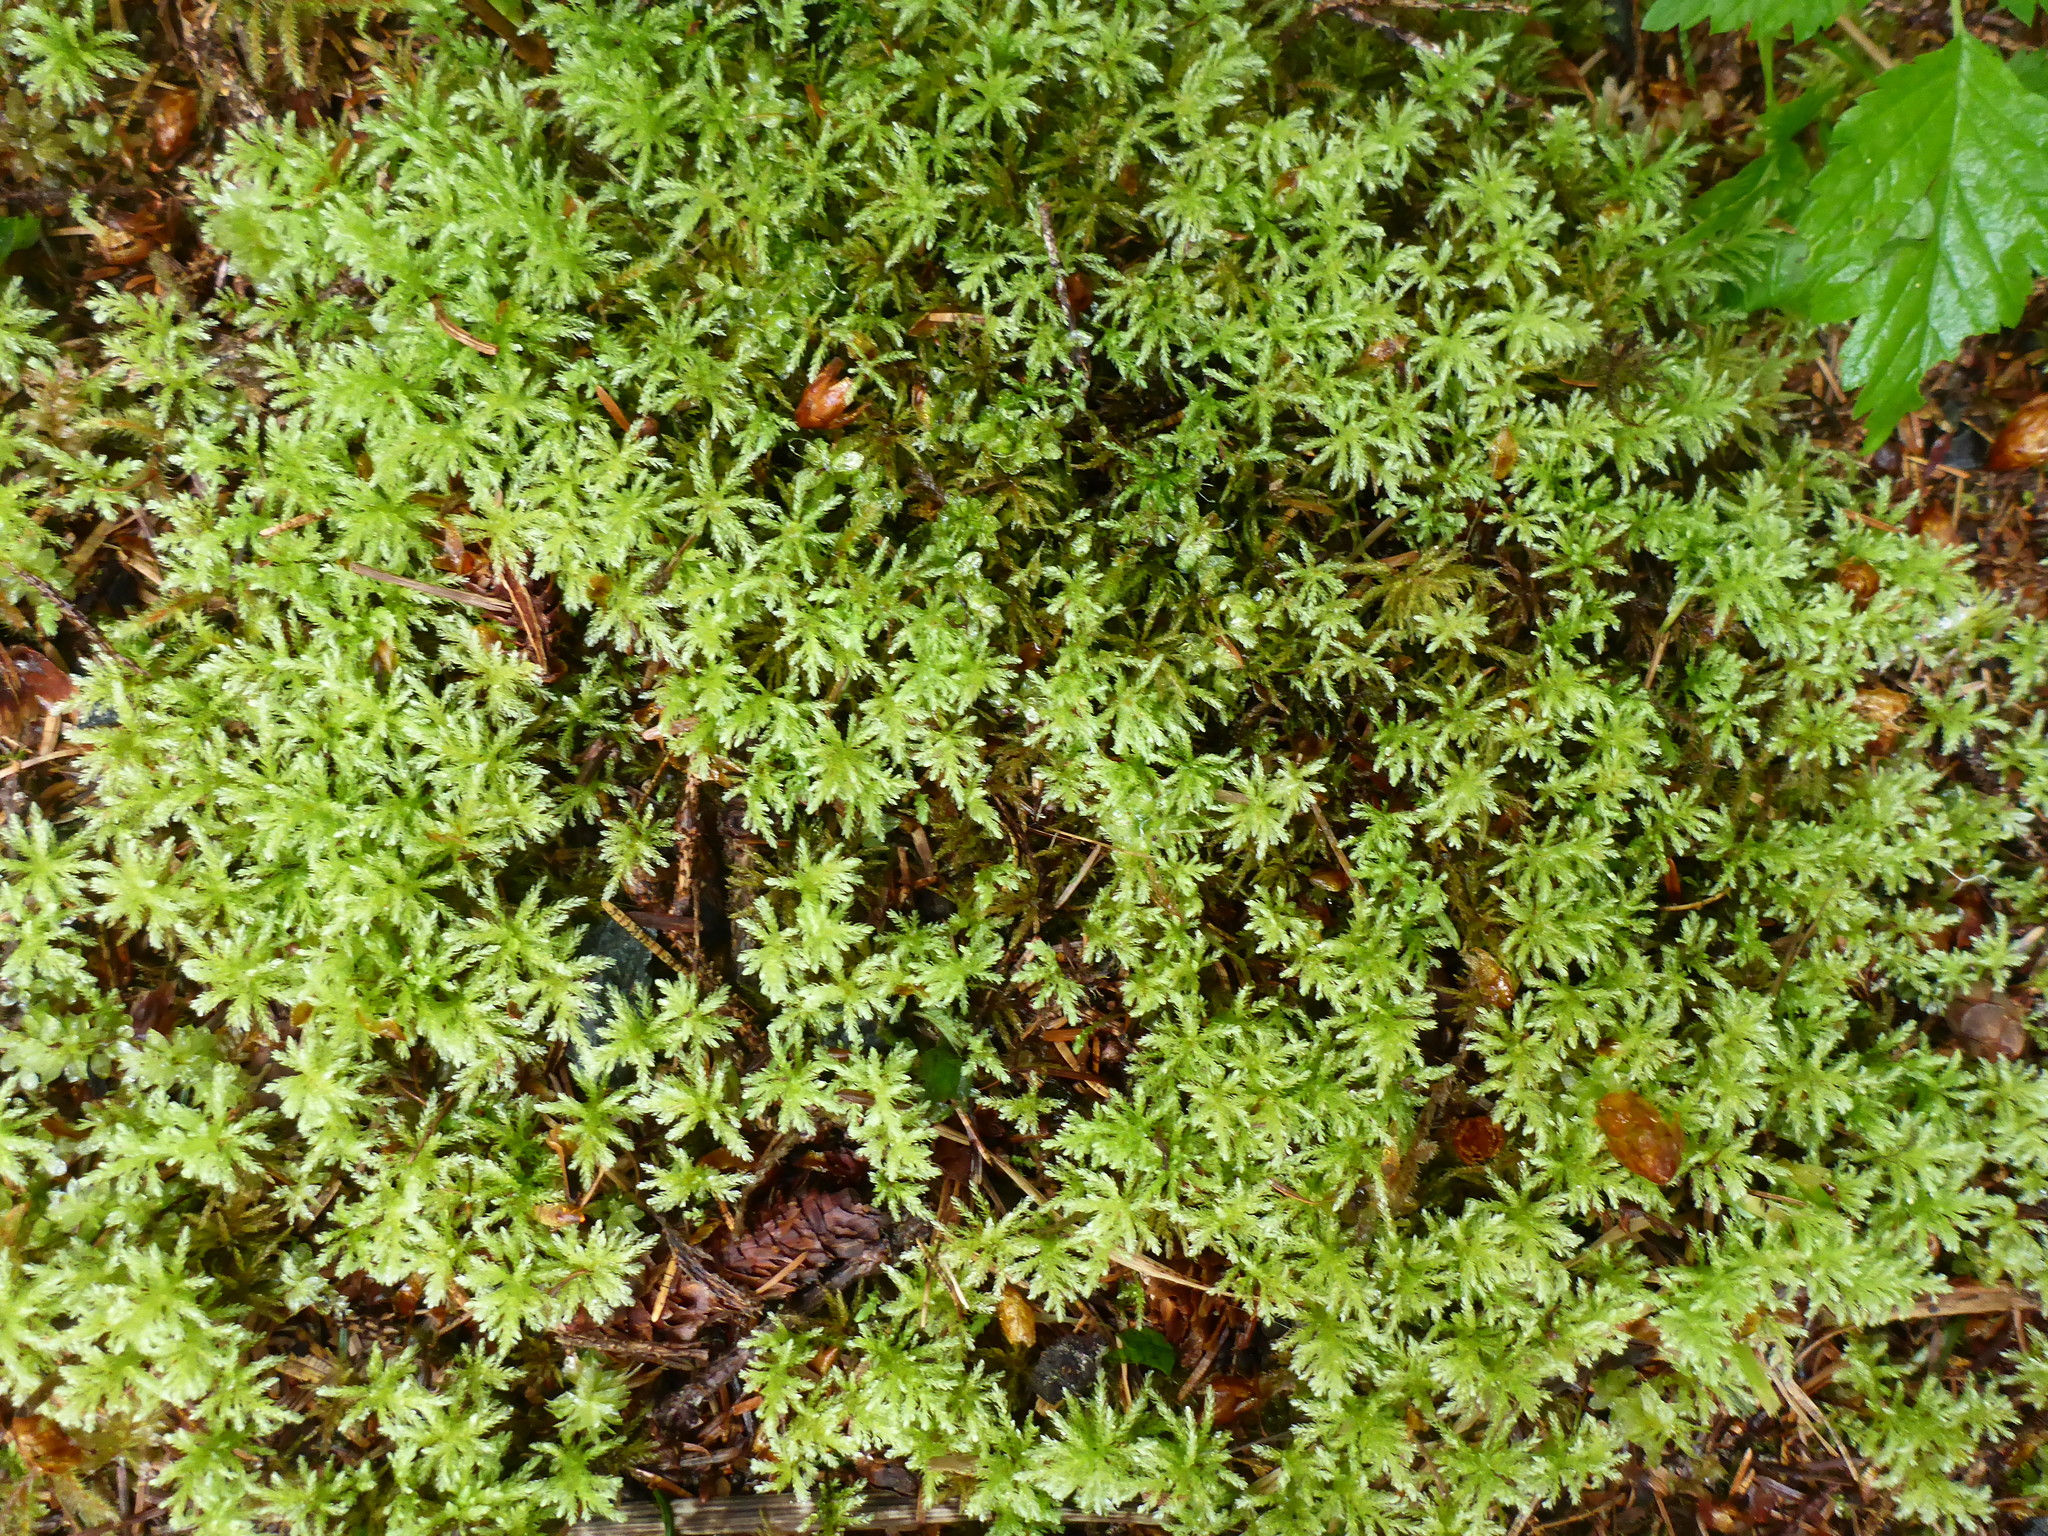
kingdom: Plantae
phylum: Bryophyta
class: Bryopsida
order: Bryales
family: Mniaceae
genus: Leucolepis
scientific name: Leucolepis acanthoneura
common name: Leucolepis umbrella moss
